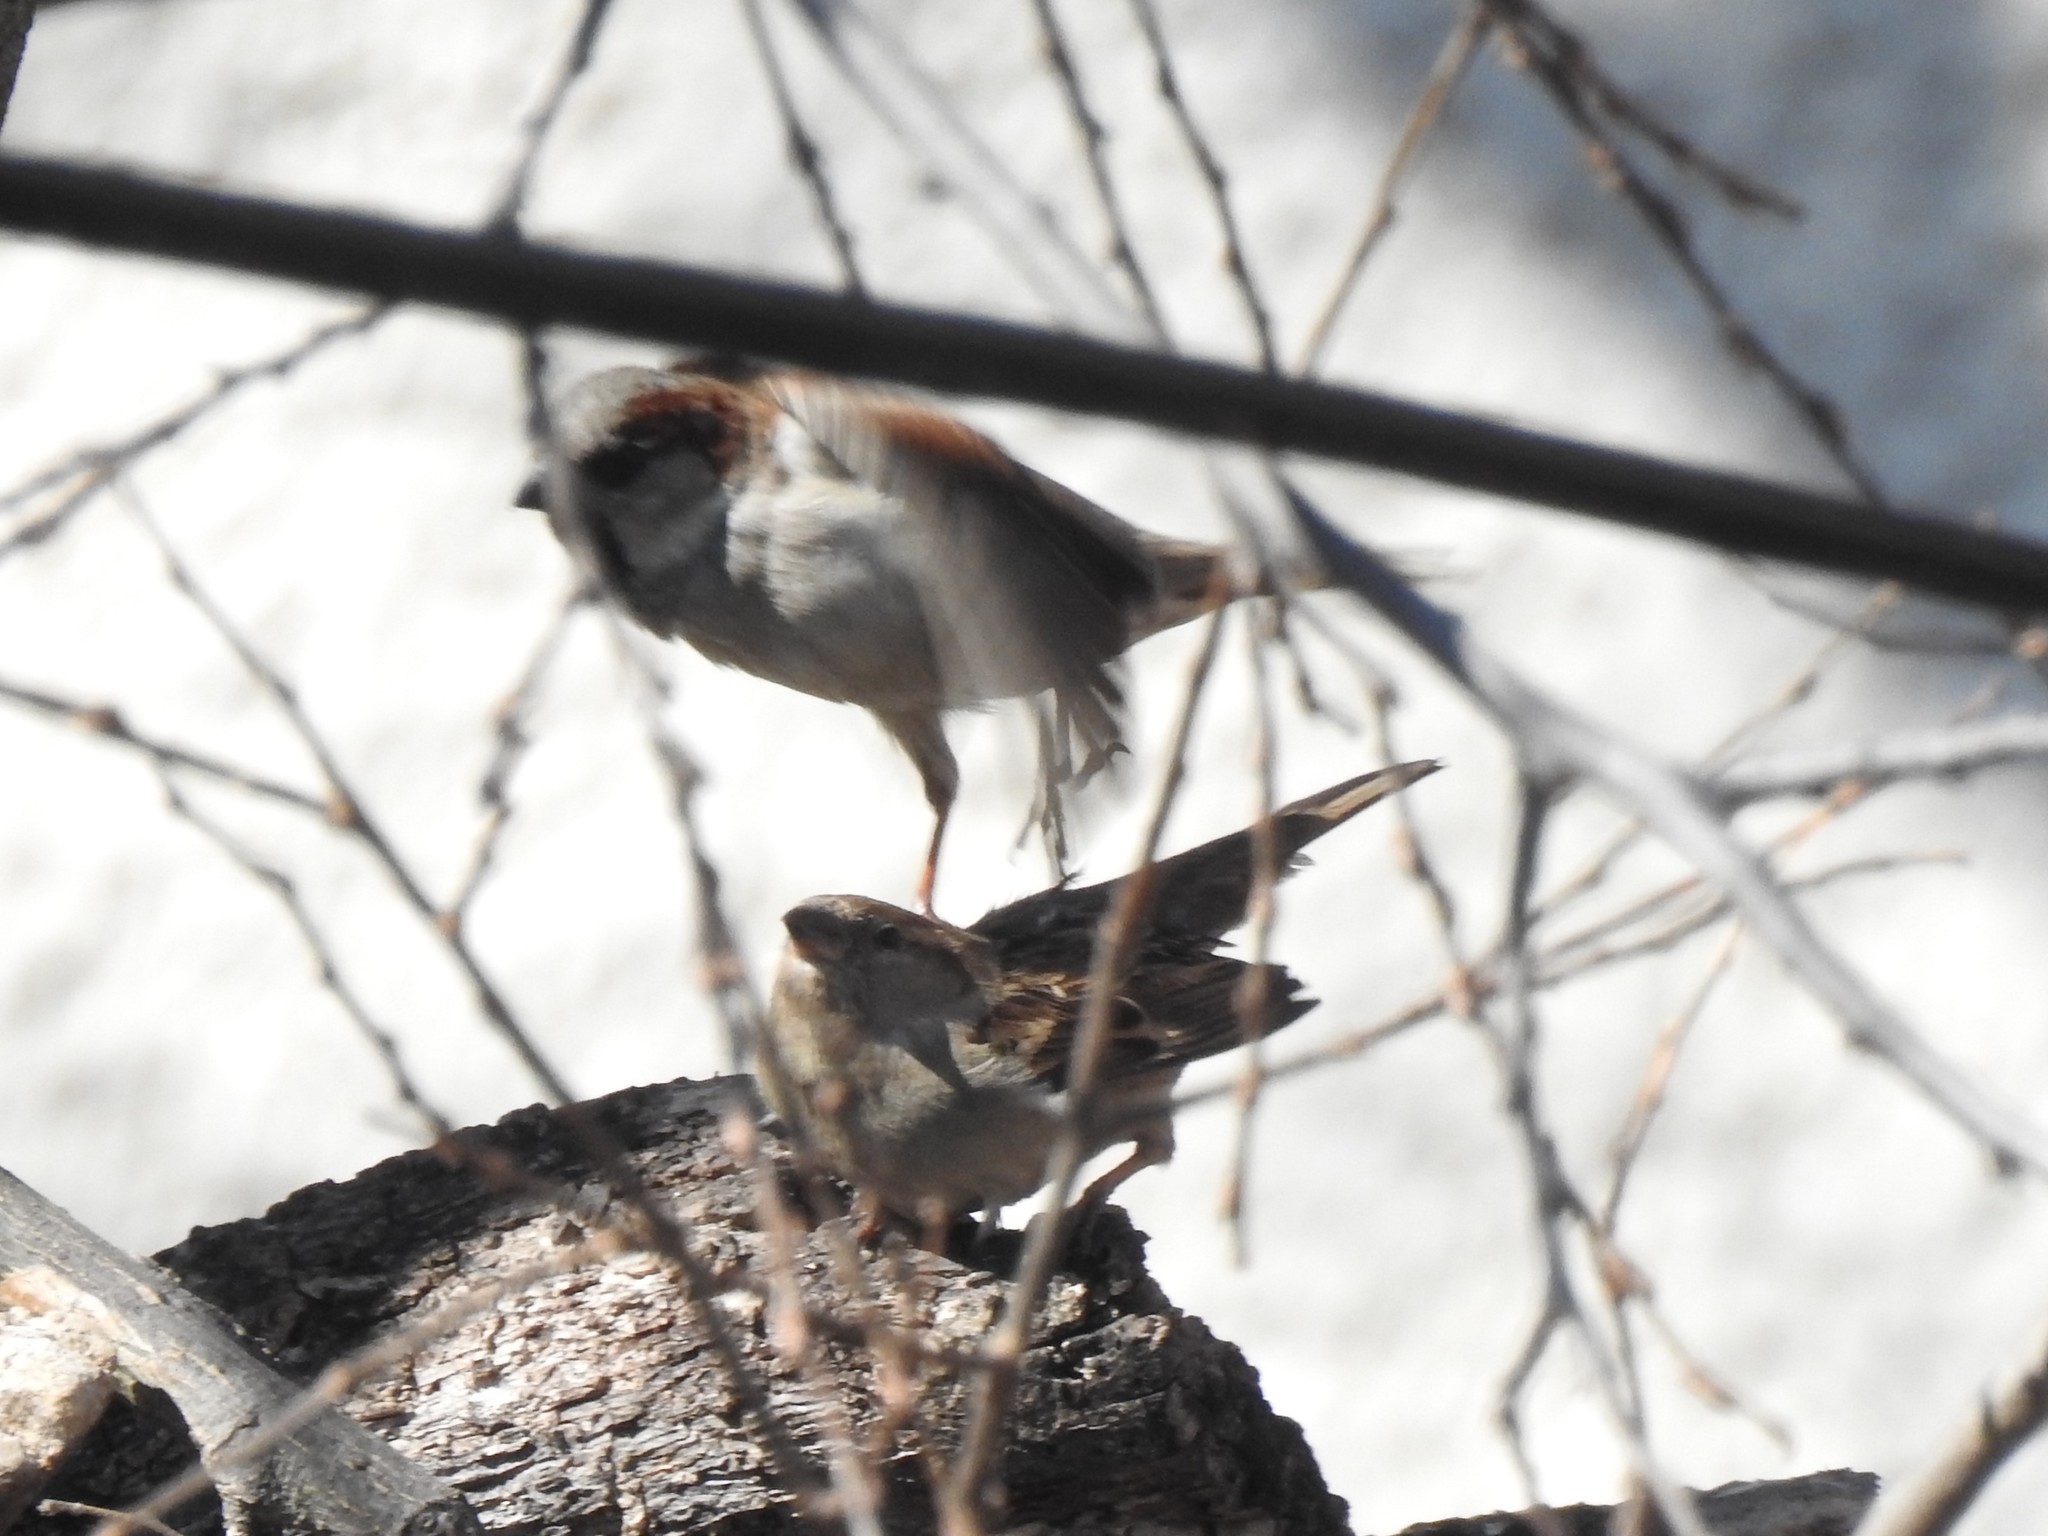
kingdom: Animalia
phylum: Chordata
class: Aves
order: Passeriformes
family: Passeridae
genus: Passer
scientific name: Passer domesticus
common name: House sparrow
